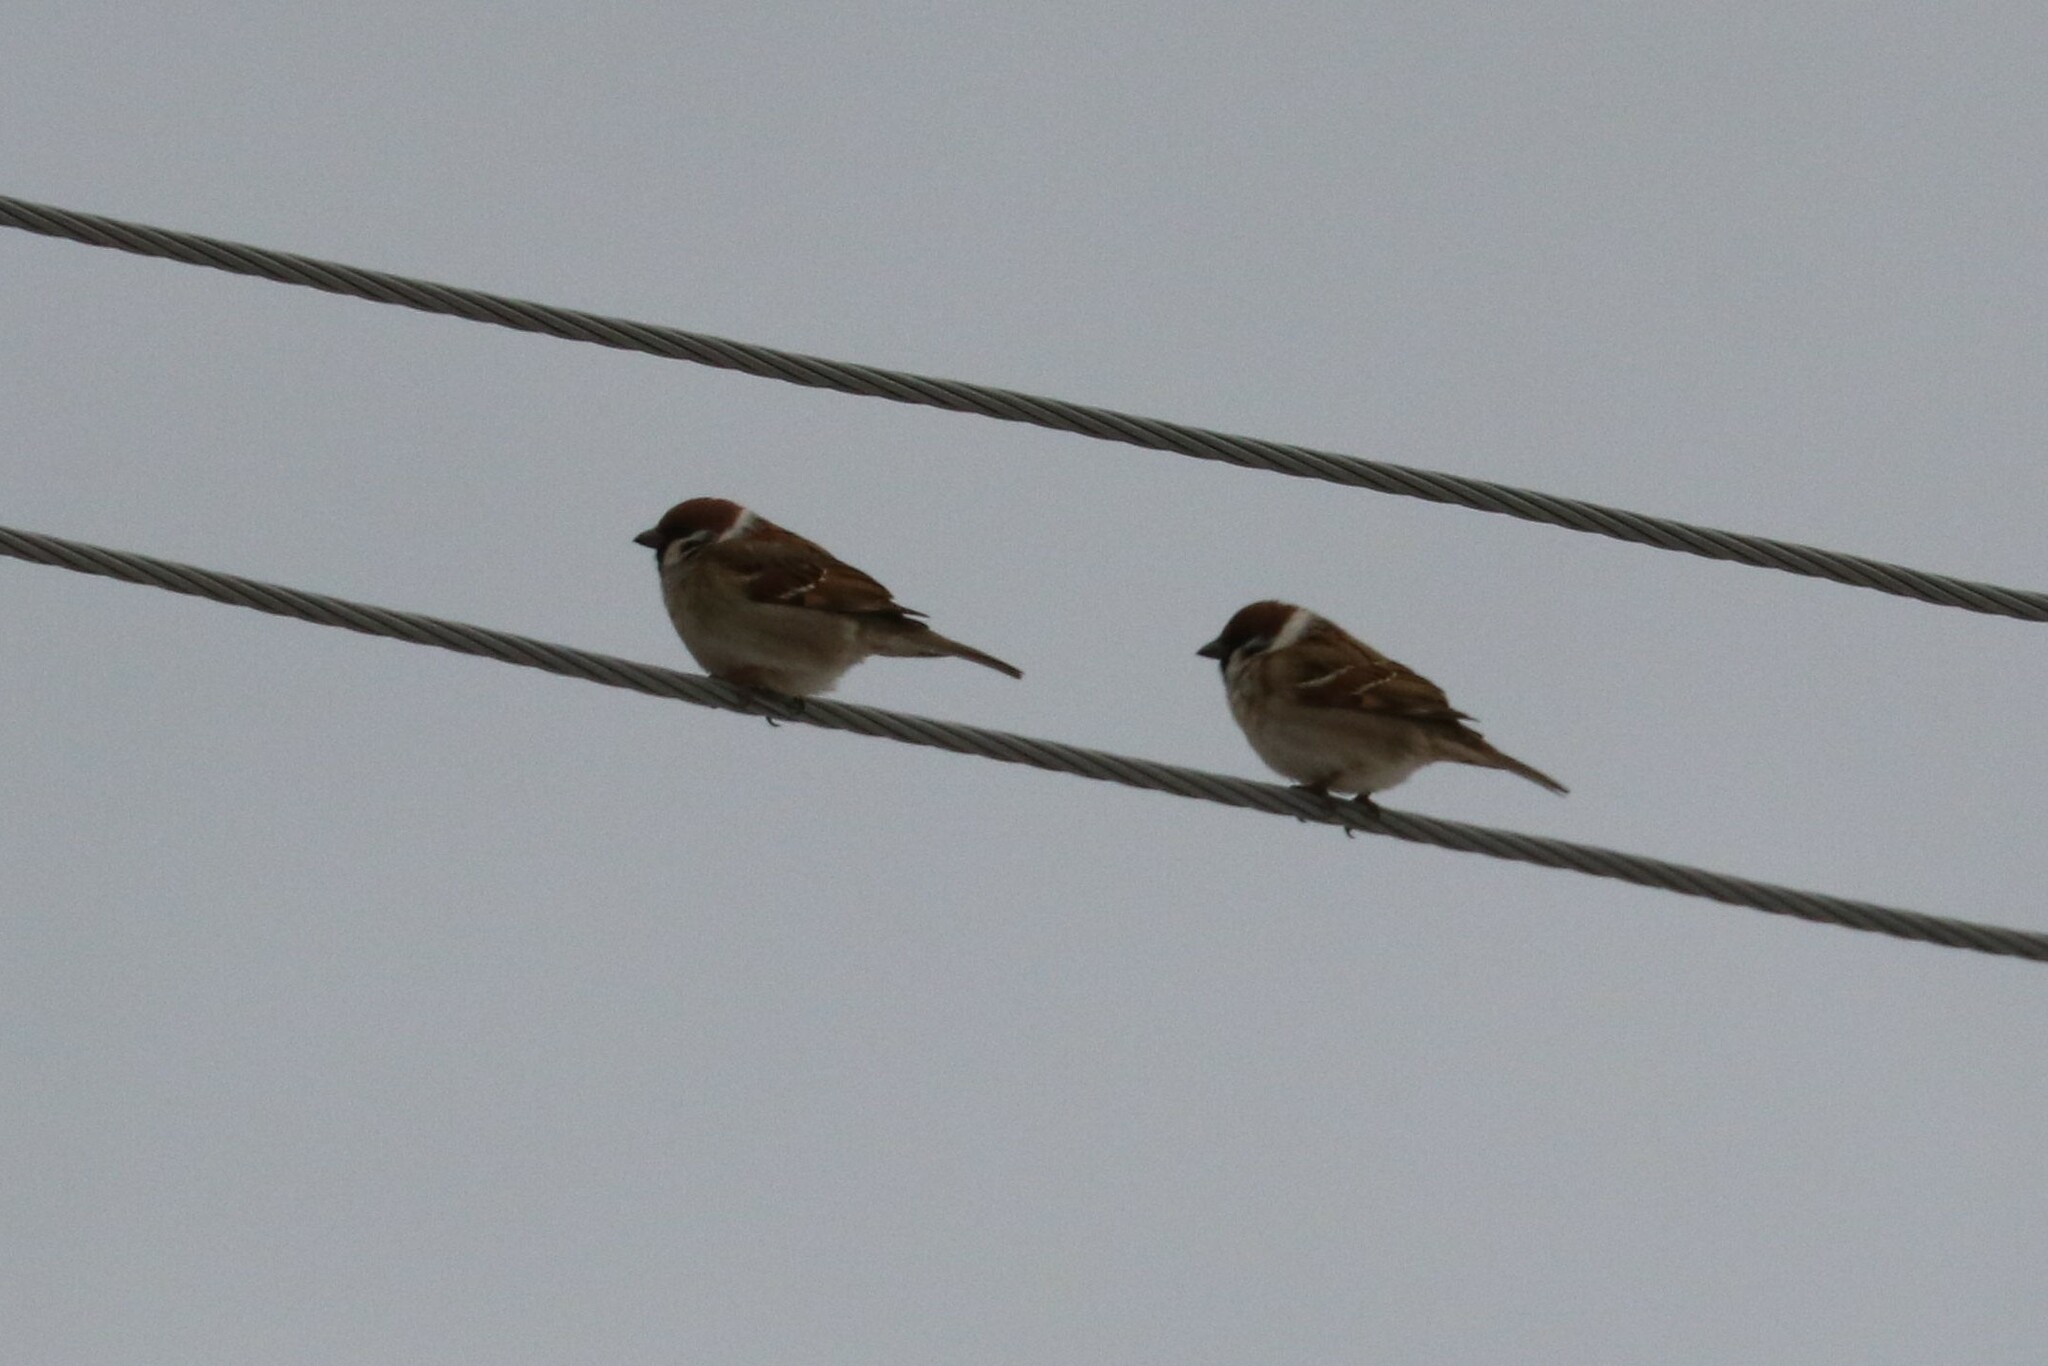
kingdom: Animalia
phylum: Chordata
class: Aves
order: Passeriformes
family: Passeridae
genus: Passer
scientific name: Passer montanus
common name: Eurasian tree sparrow
